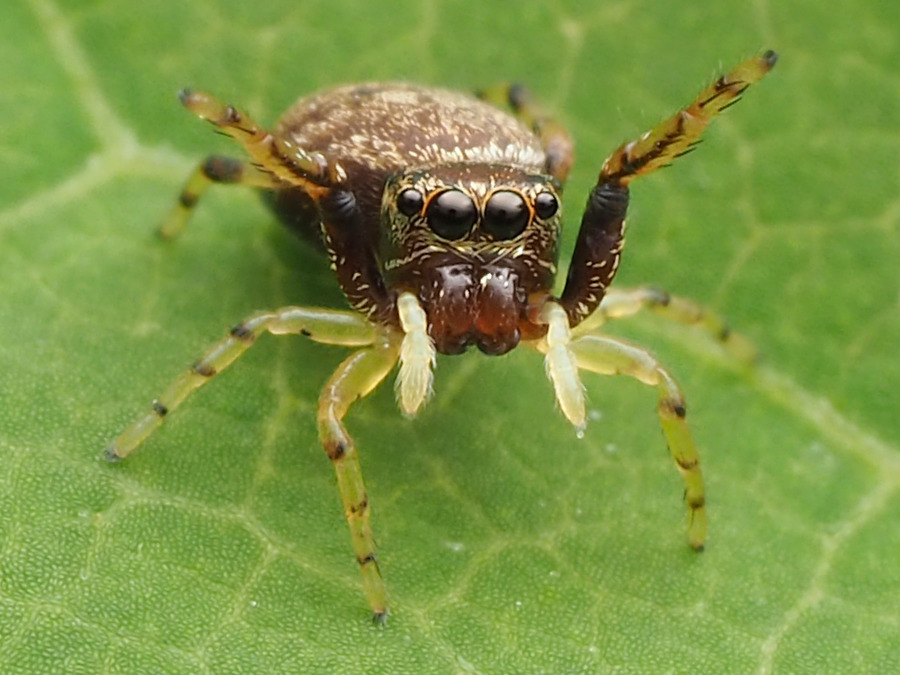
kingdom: Animalia
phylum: Arthropoda
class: Arachnida
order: Araneae
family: Salticidae
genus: Zygoballus
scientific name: Zygoballus rufipes
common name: Jumping spiders
